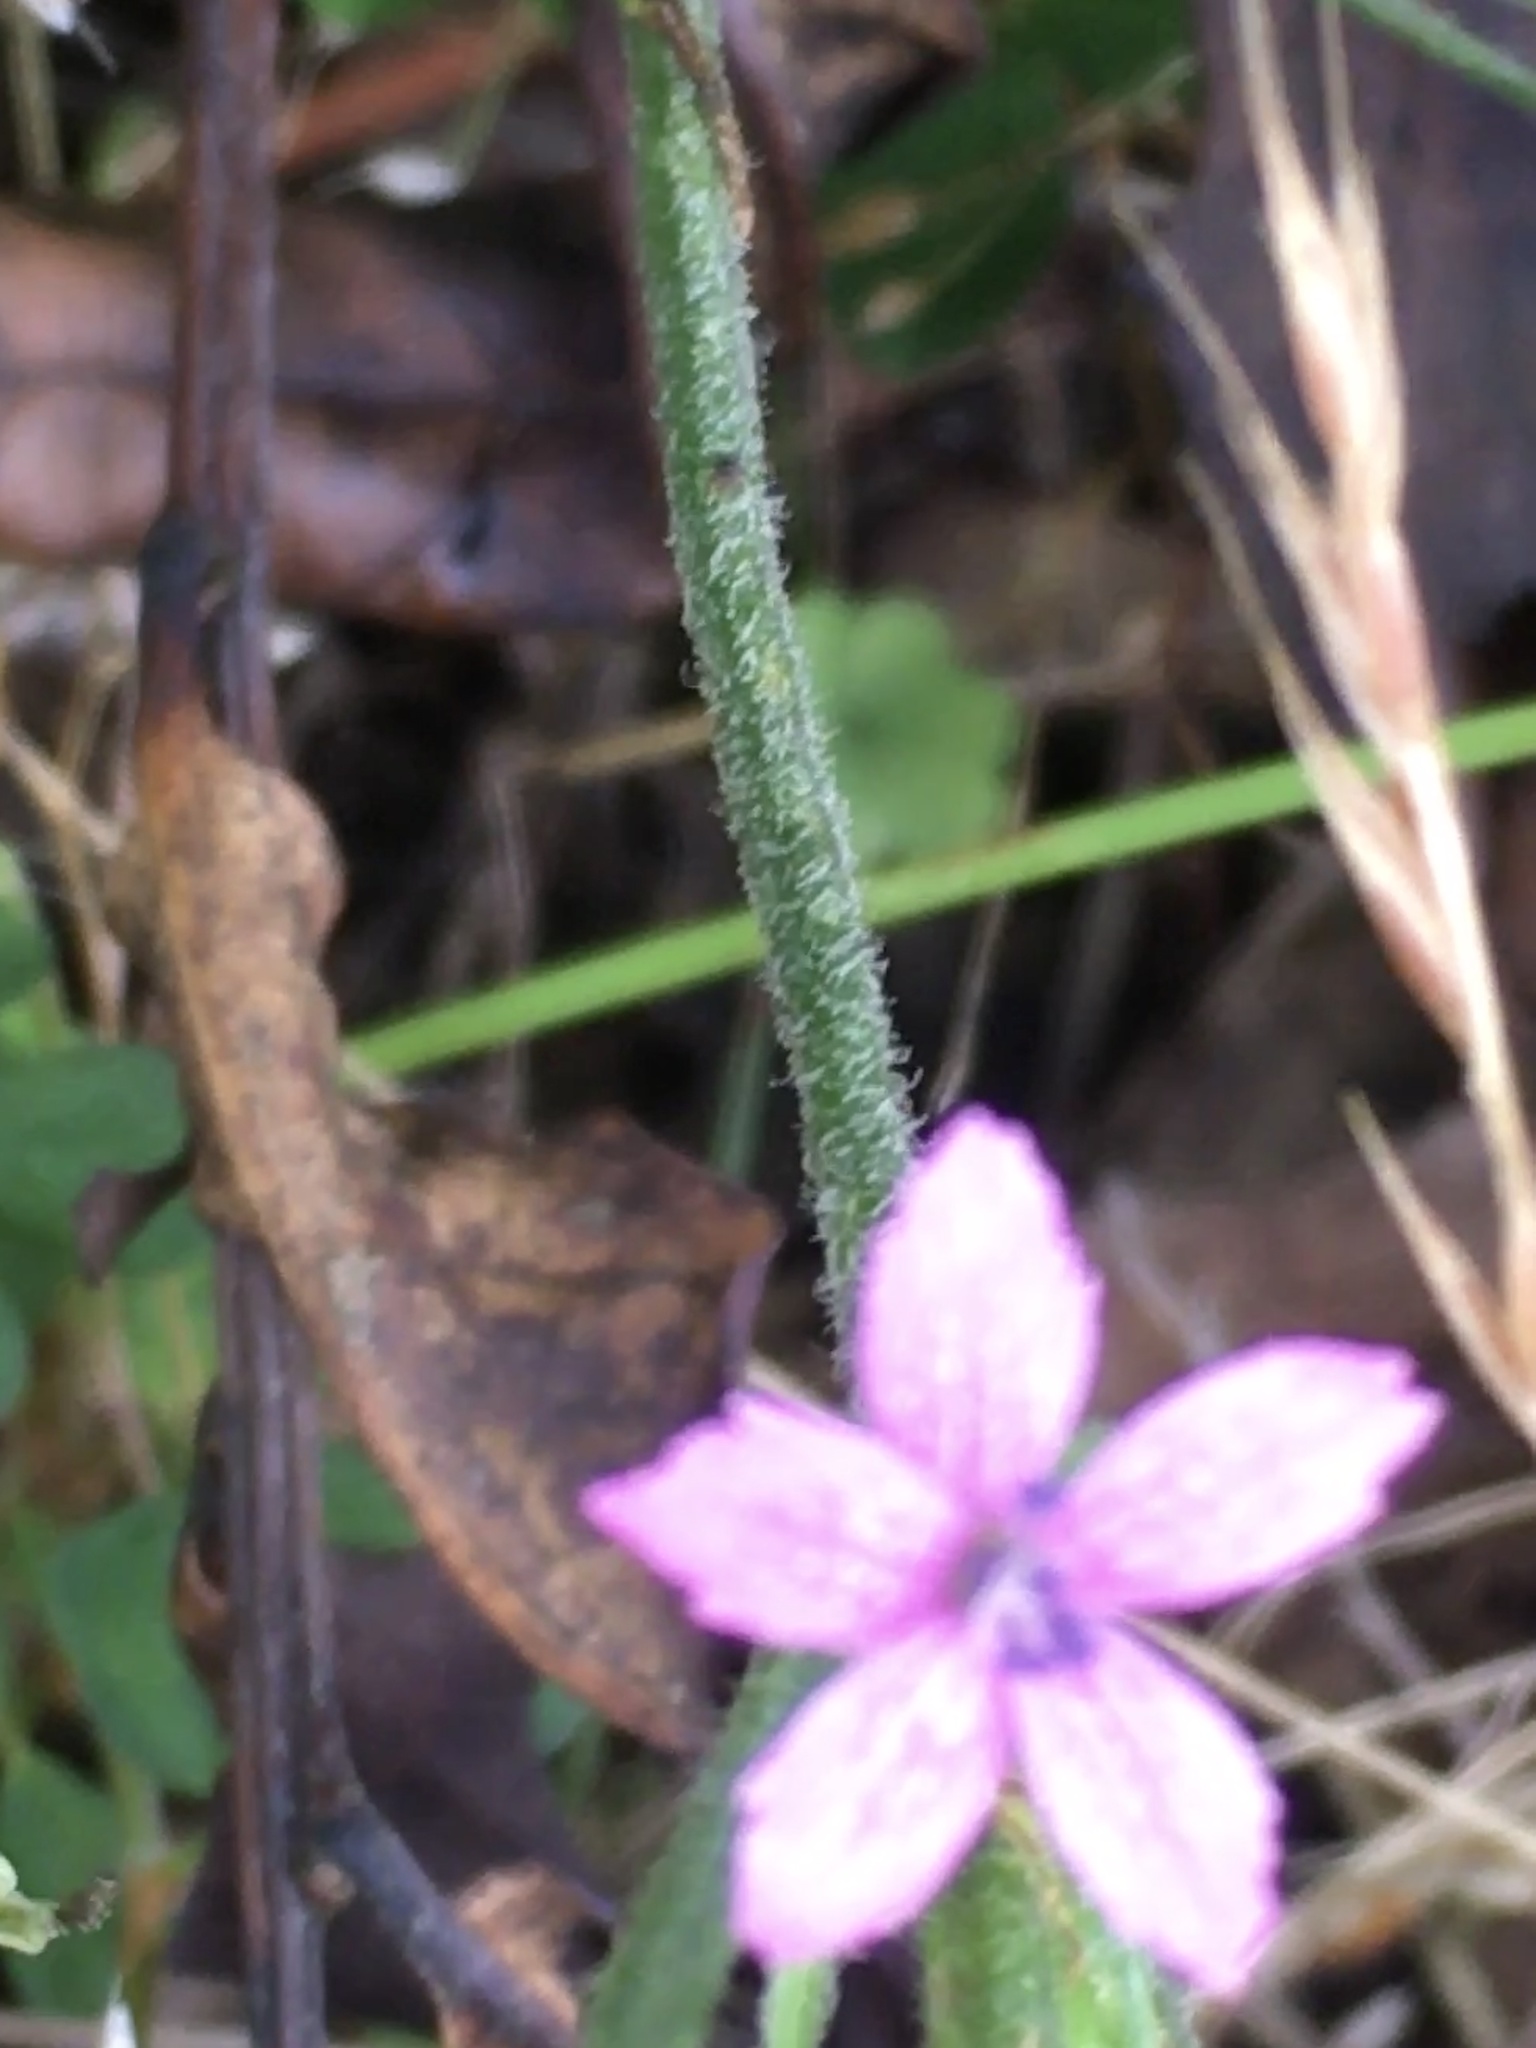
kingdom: Plantae
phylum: Tracheophyta
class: Magnoliopsida
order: Caryophyllales
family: Caryophyllaceae
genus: Dianthus
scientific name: Dianthus armeria
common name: Deptford pink
